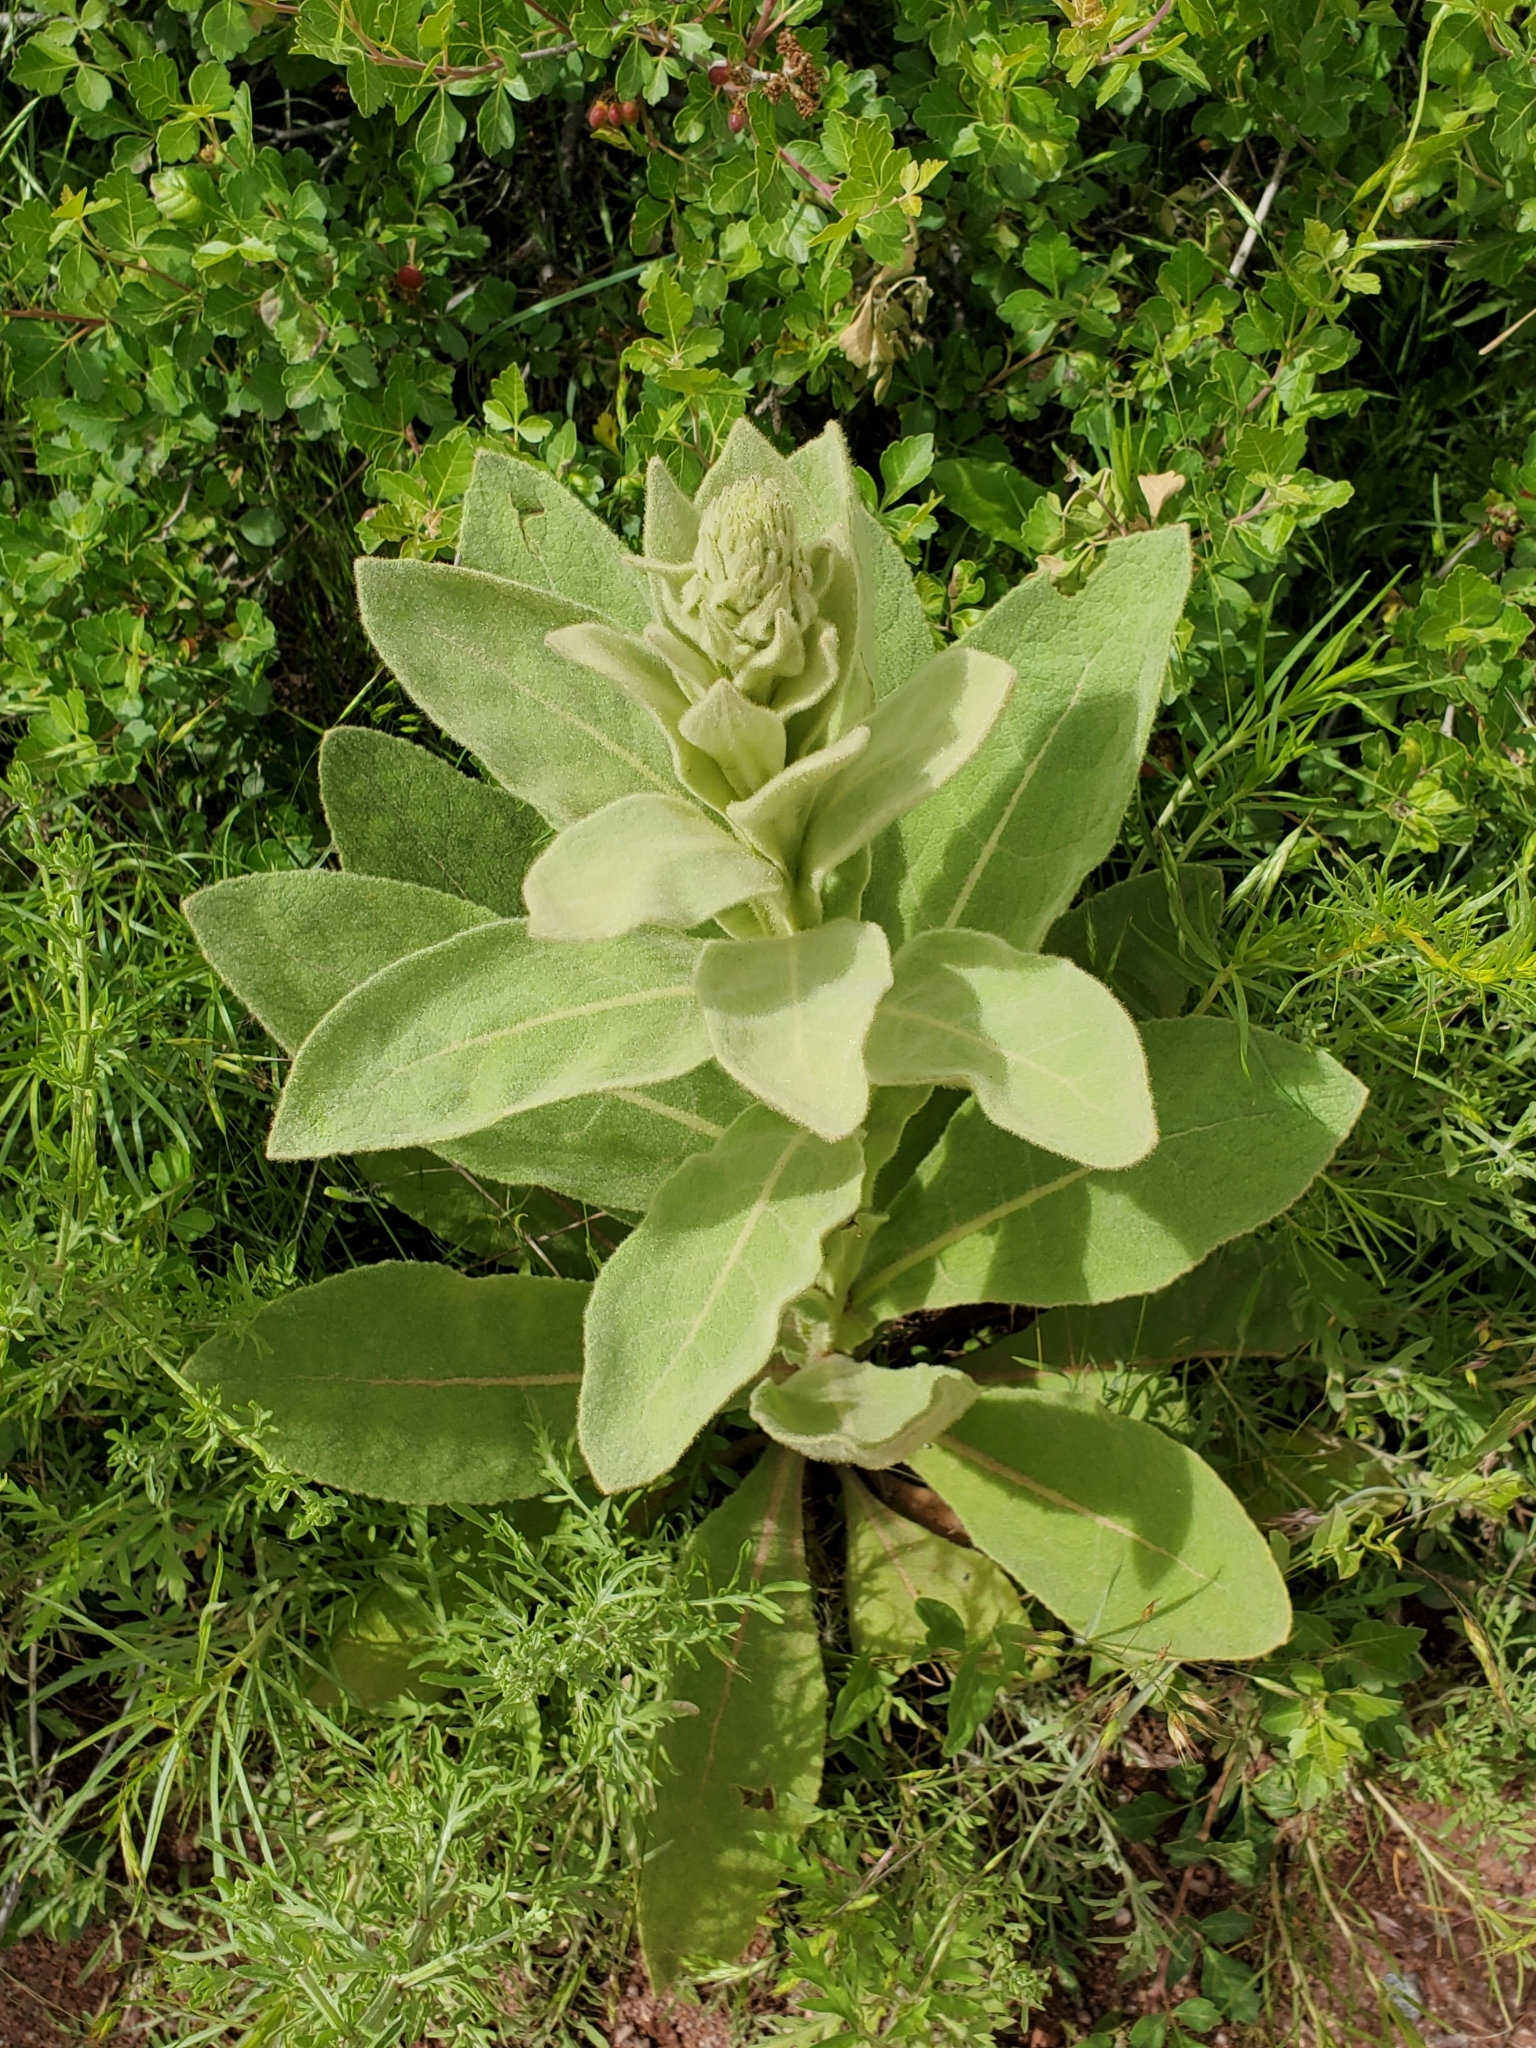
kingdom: Plantae
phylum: Tracheophyta
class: Magnoliopsida
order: Lamiales
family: Scrophulariaceae
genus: Verbascum
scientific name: Verbascum thapsus
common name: Common mullein
